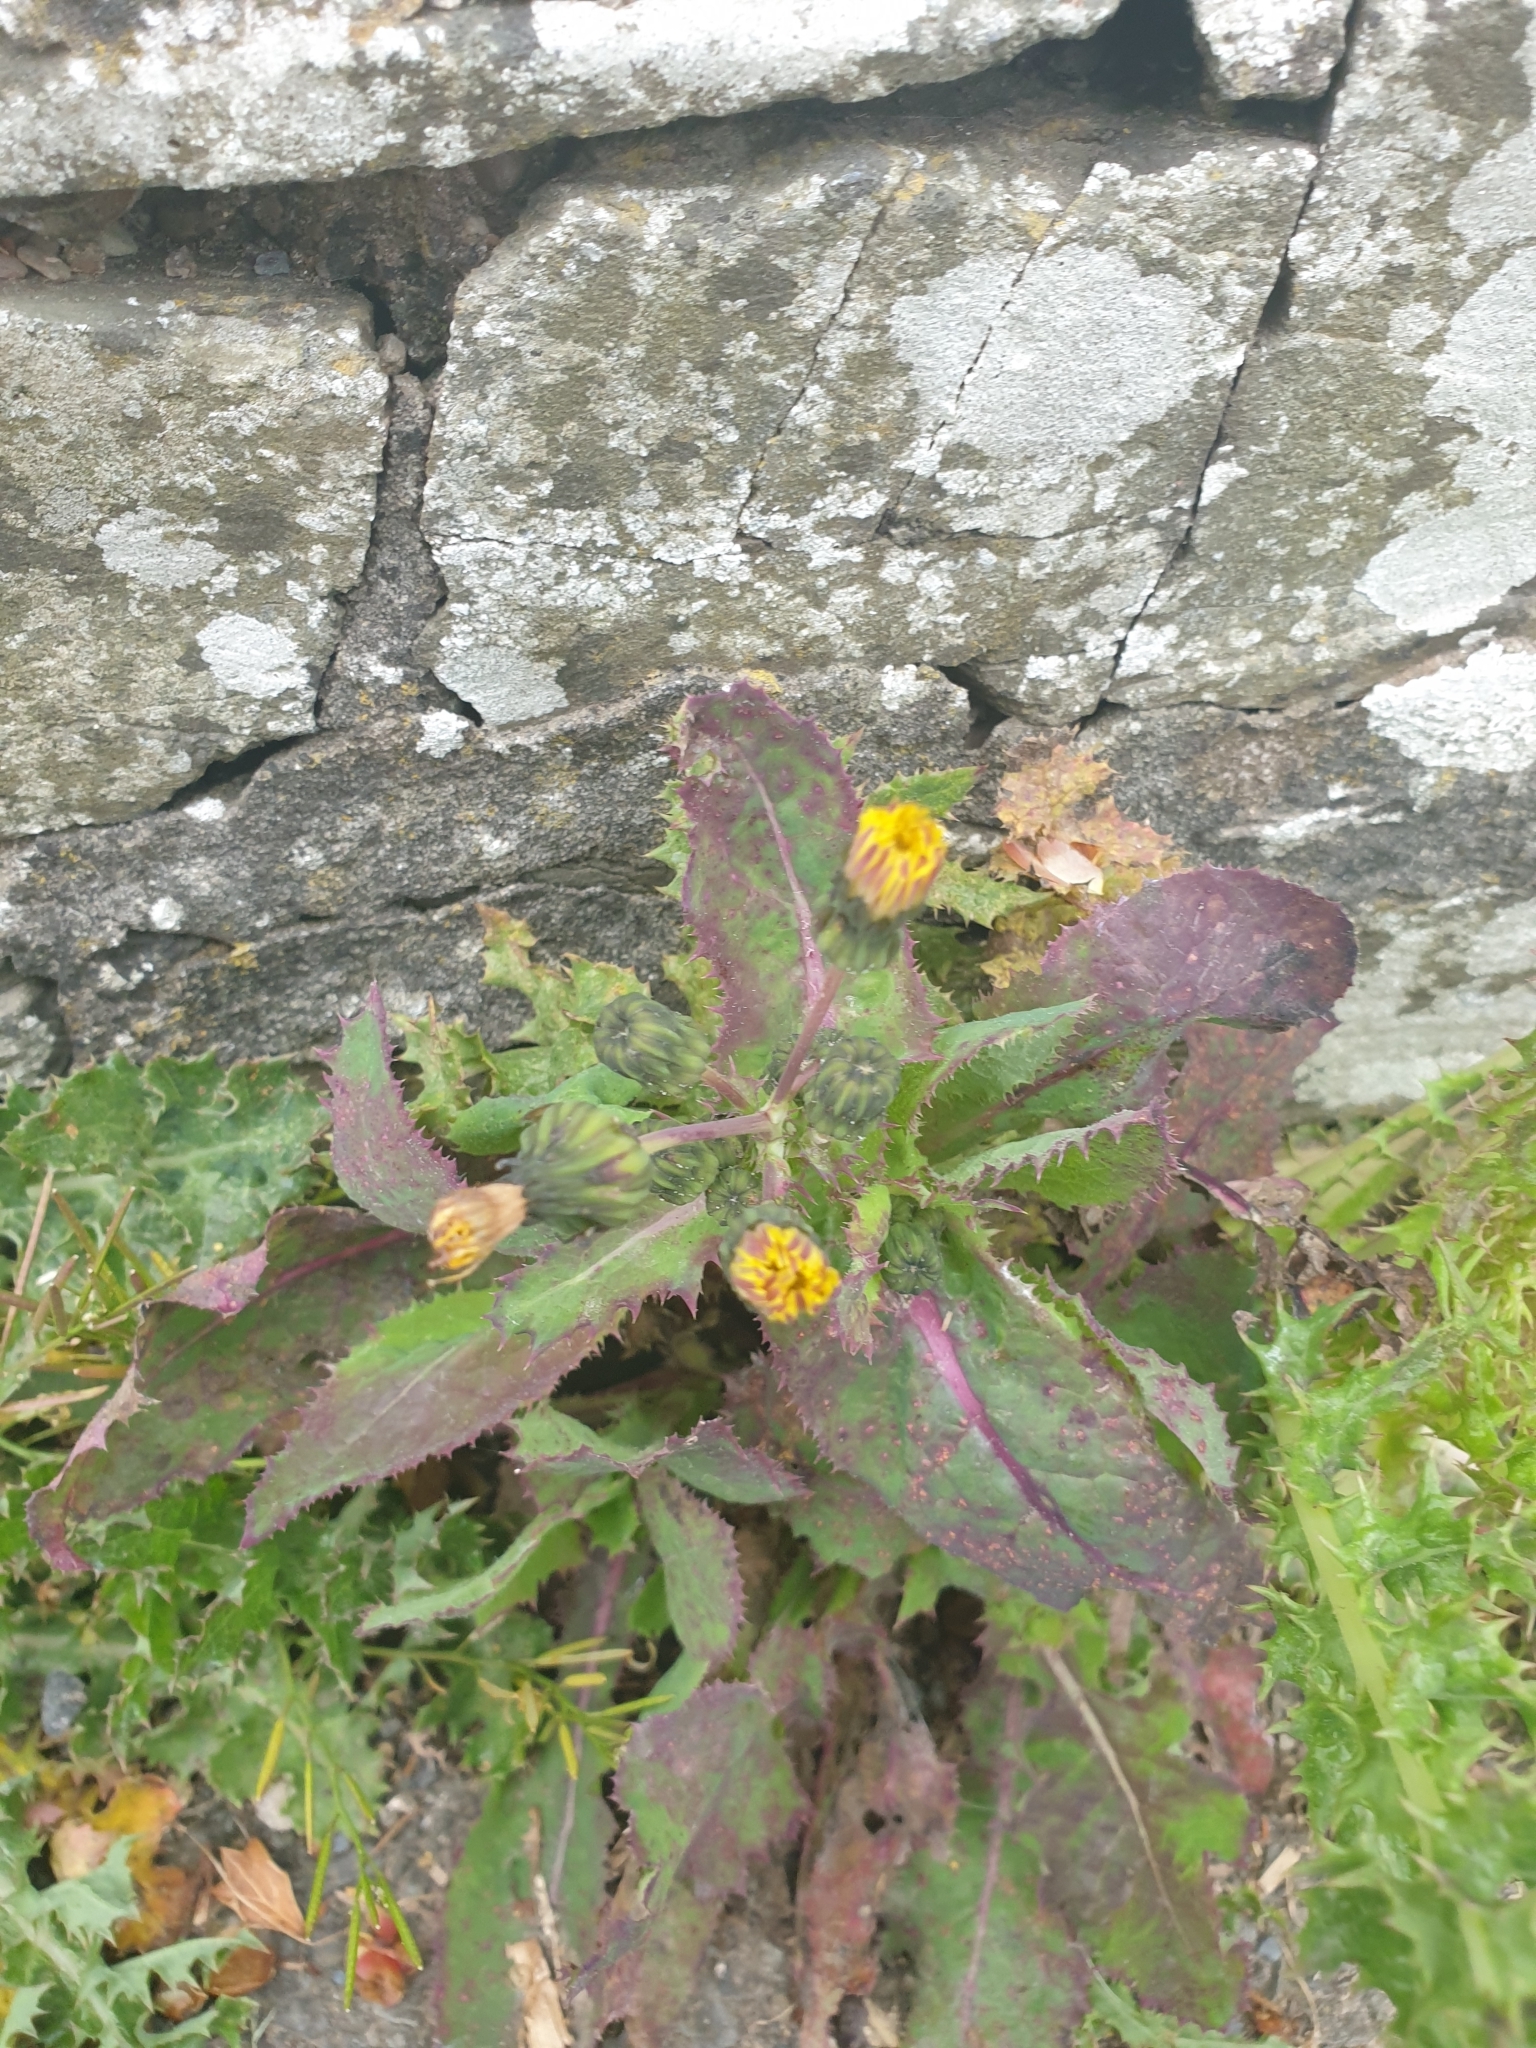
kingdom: Plantae
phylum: Tracheophyta
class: Magnoliopsida
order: Asterales
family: Asteraceae
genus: Sonchus
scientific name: Sonchus oleraceus
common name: Common sowthistle
